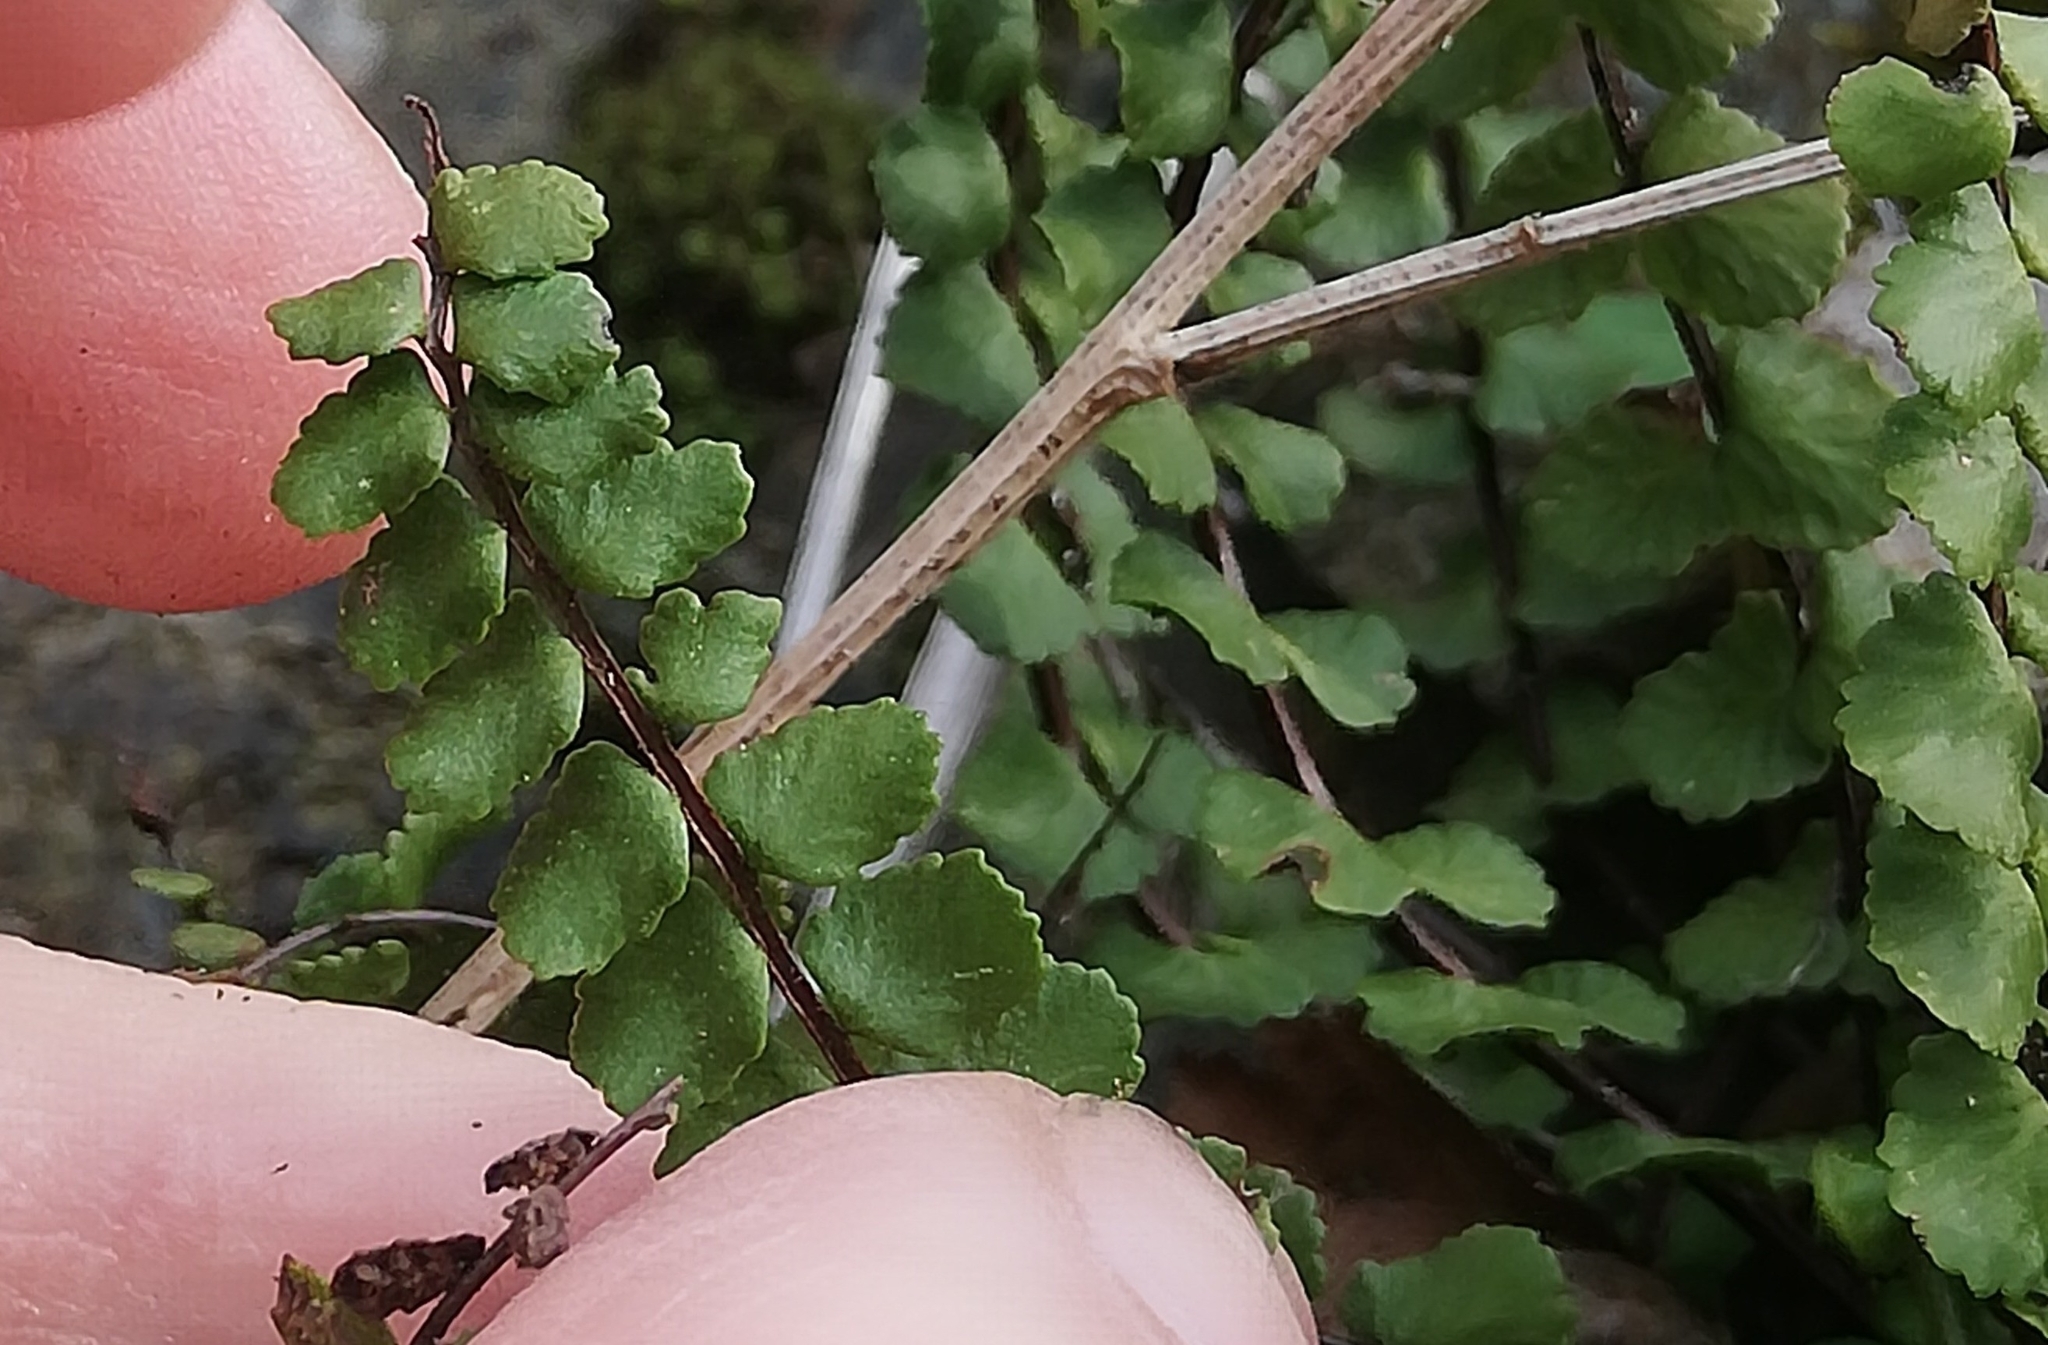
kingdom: Plantae
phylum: Tracheophyta
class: Polypodiopsida
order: Polypodiales
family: Aspleniaceae
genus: Asplenium
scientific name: Asplenium trichomanes
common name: Maidenhair spleenwort
